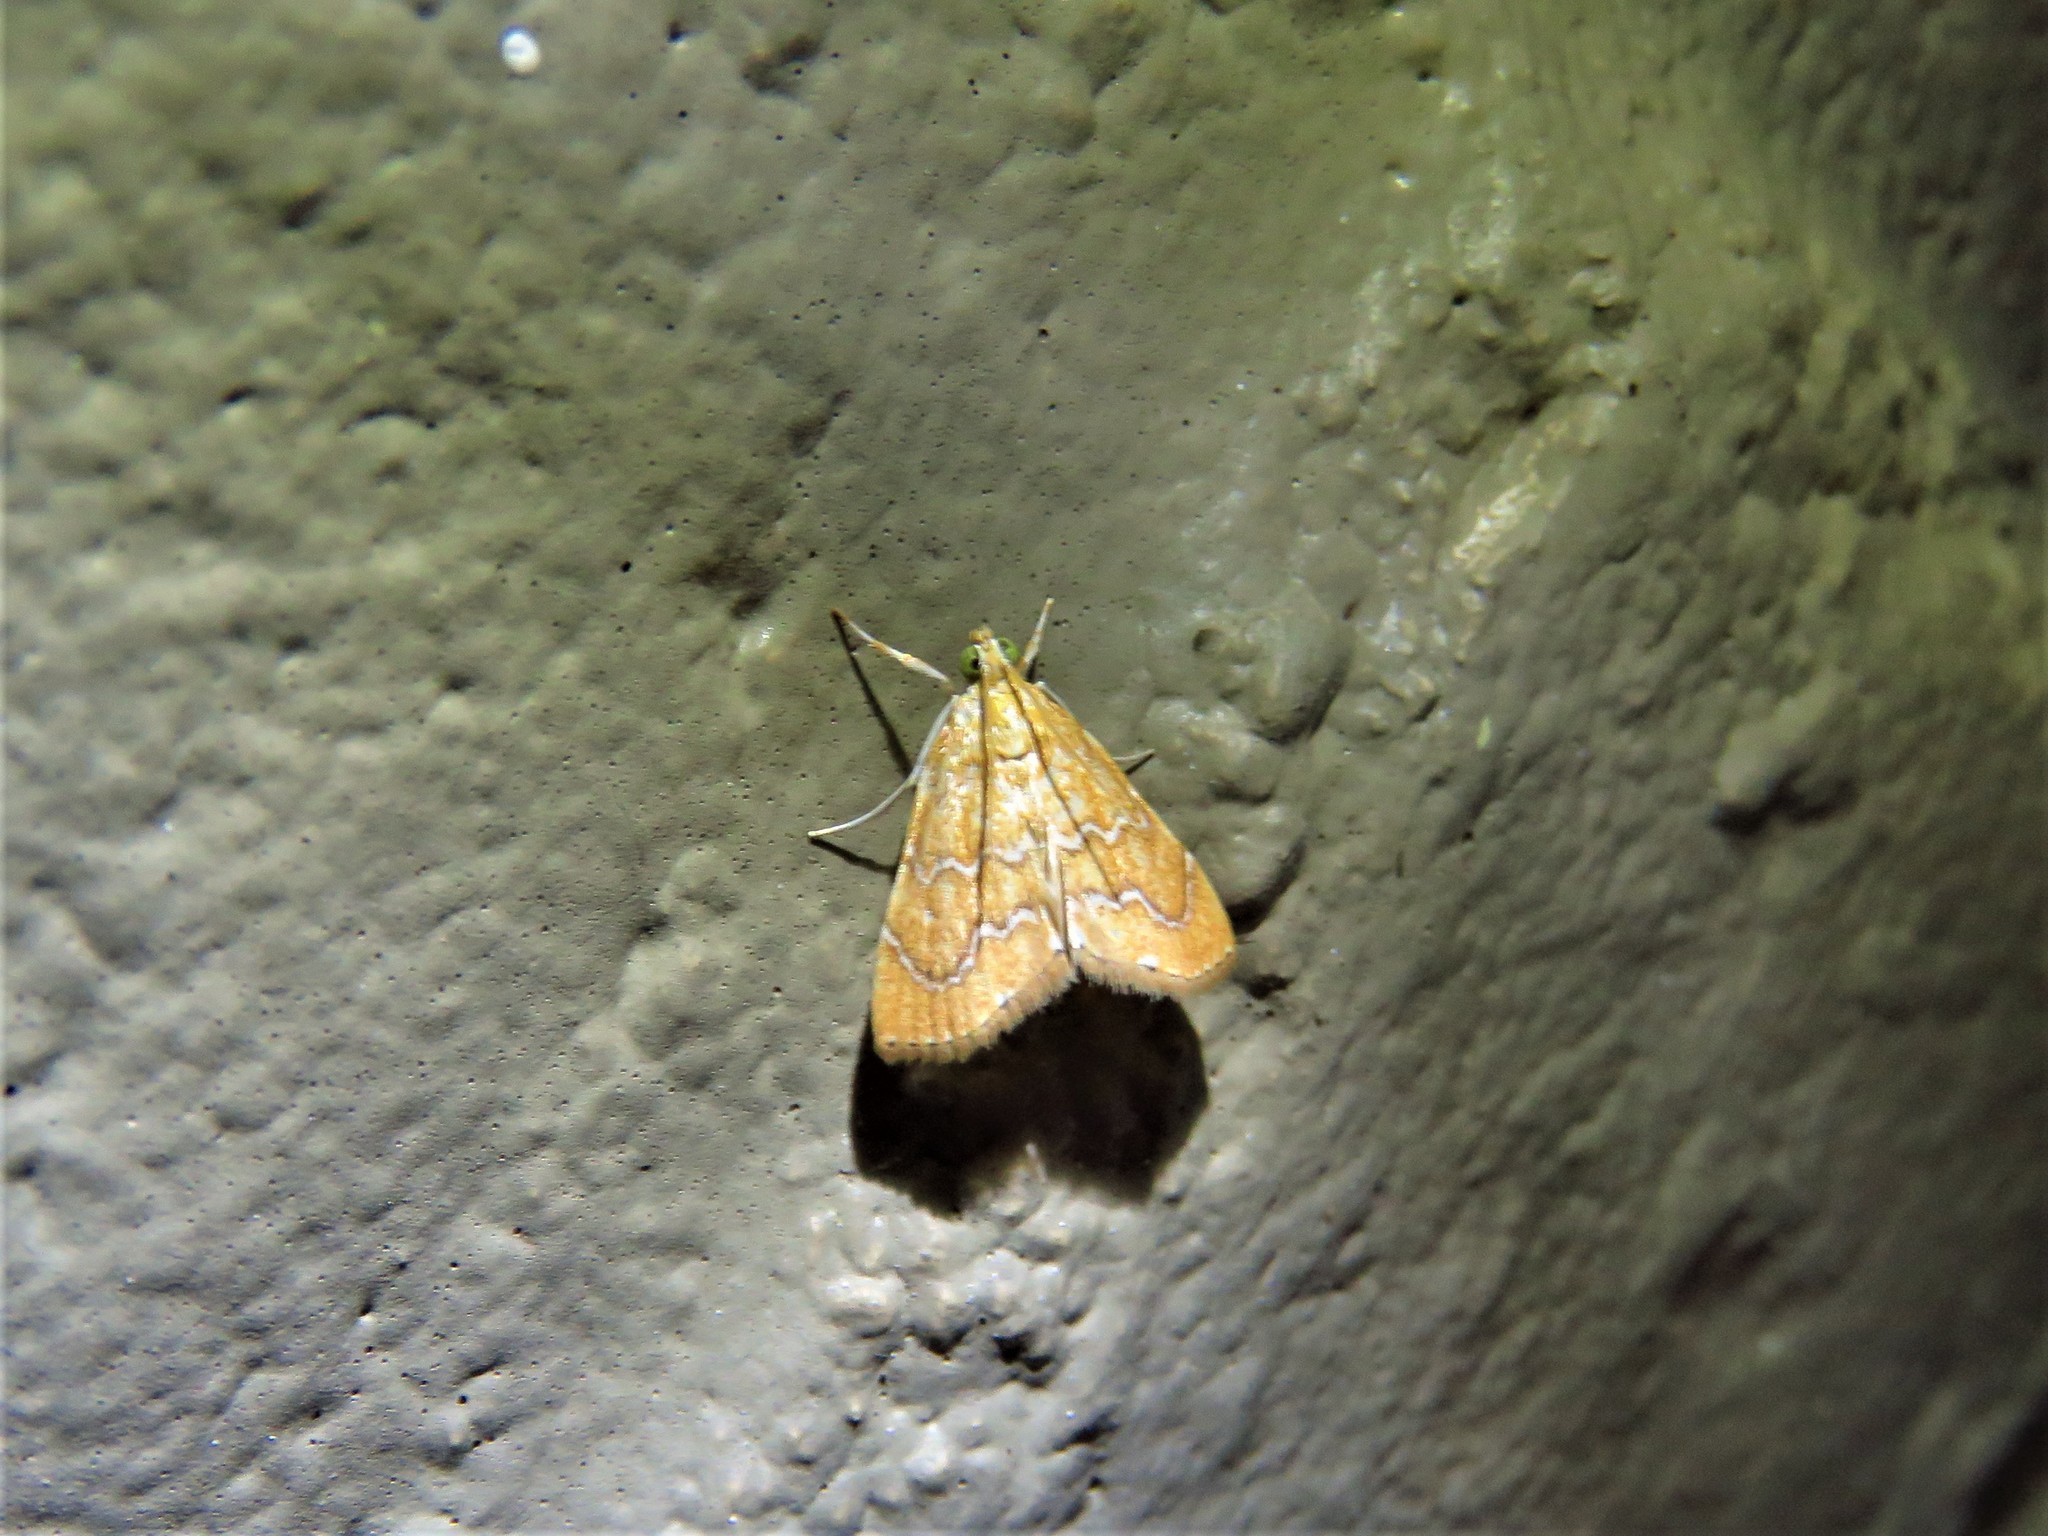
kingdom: Animalia
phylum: Arthropoda
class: Insecta
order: Lepidoptera
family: Crambidae
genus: Glaphyria
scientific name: Glaphyria sesquistrialis
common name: White-roped glaphyria
